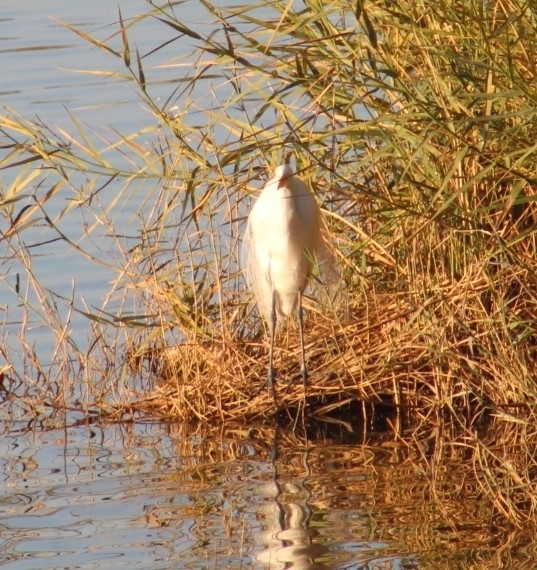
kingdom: Animalia
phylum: Chordata
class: Aves
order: Pelecaniformes
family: Ardeidae
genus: Ardea
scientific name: Ardea alba
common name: Great egret
